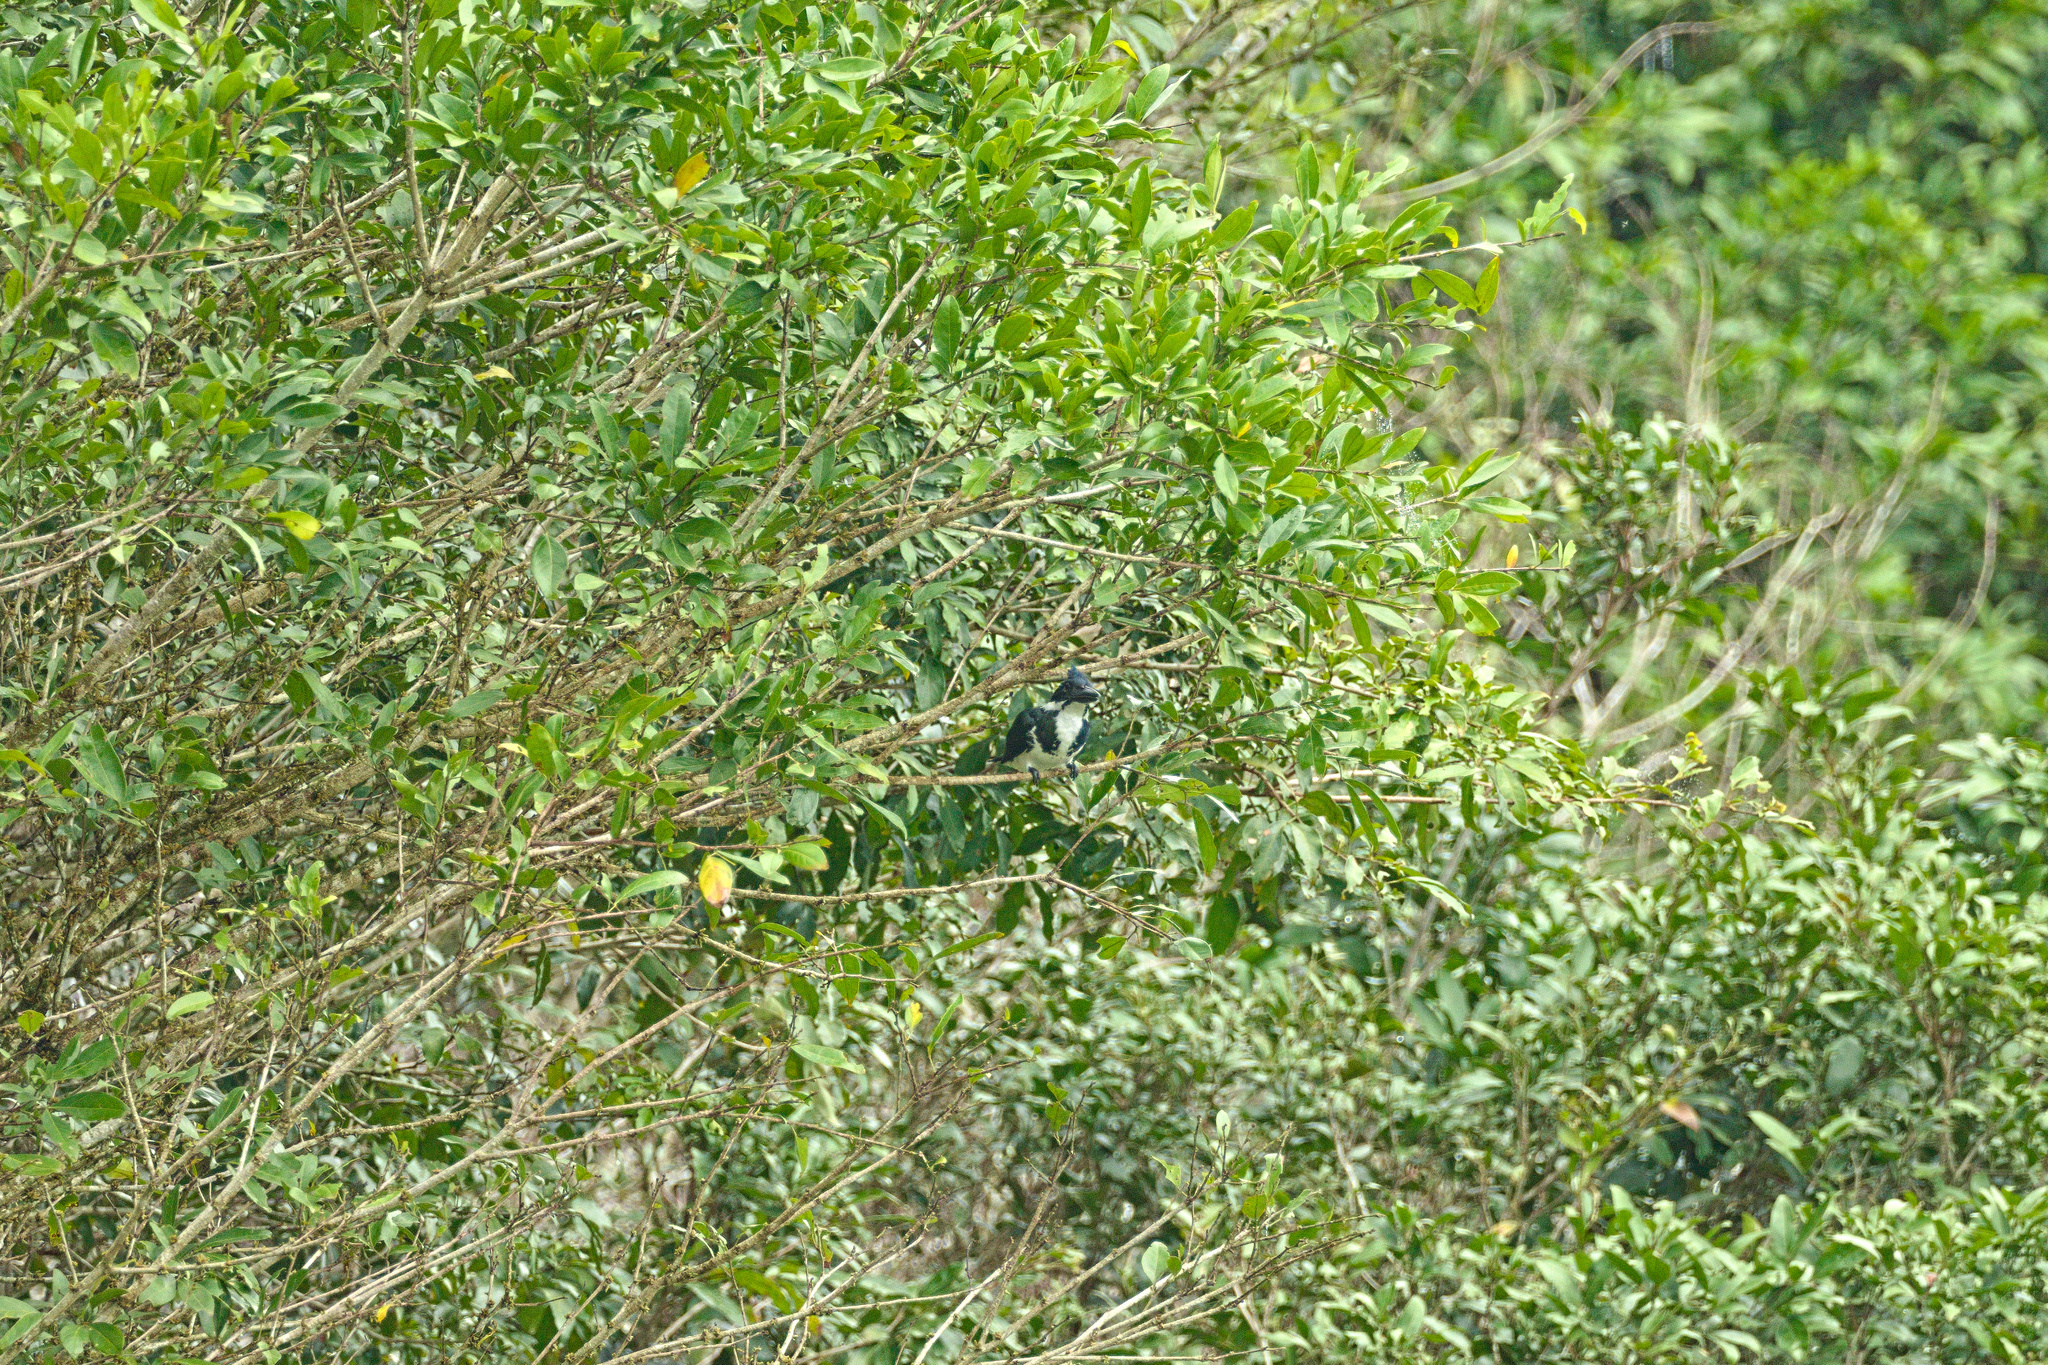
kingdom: Animalia
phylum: Chordata
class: Aves
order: Coraciiformes
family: Alcedinidae
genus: Chloroceryle
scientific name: Chloroceryle amazona
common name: Amazon kingfisher
